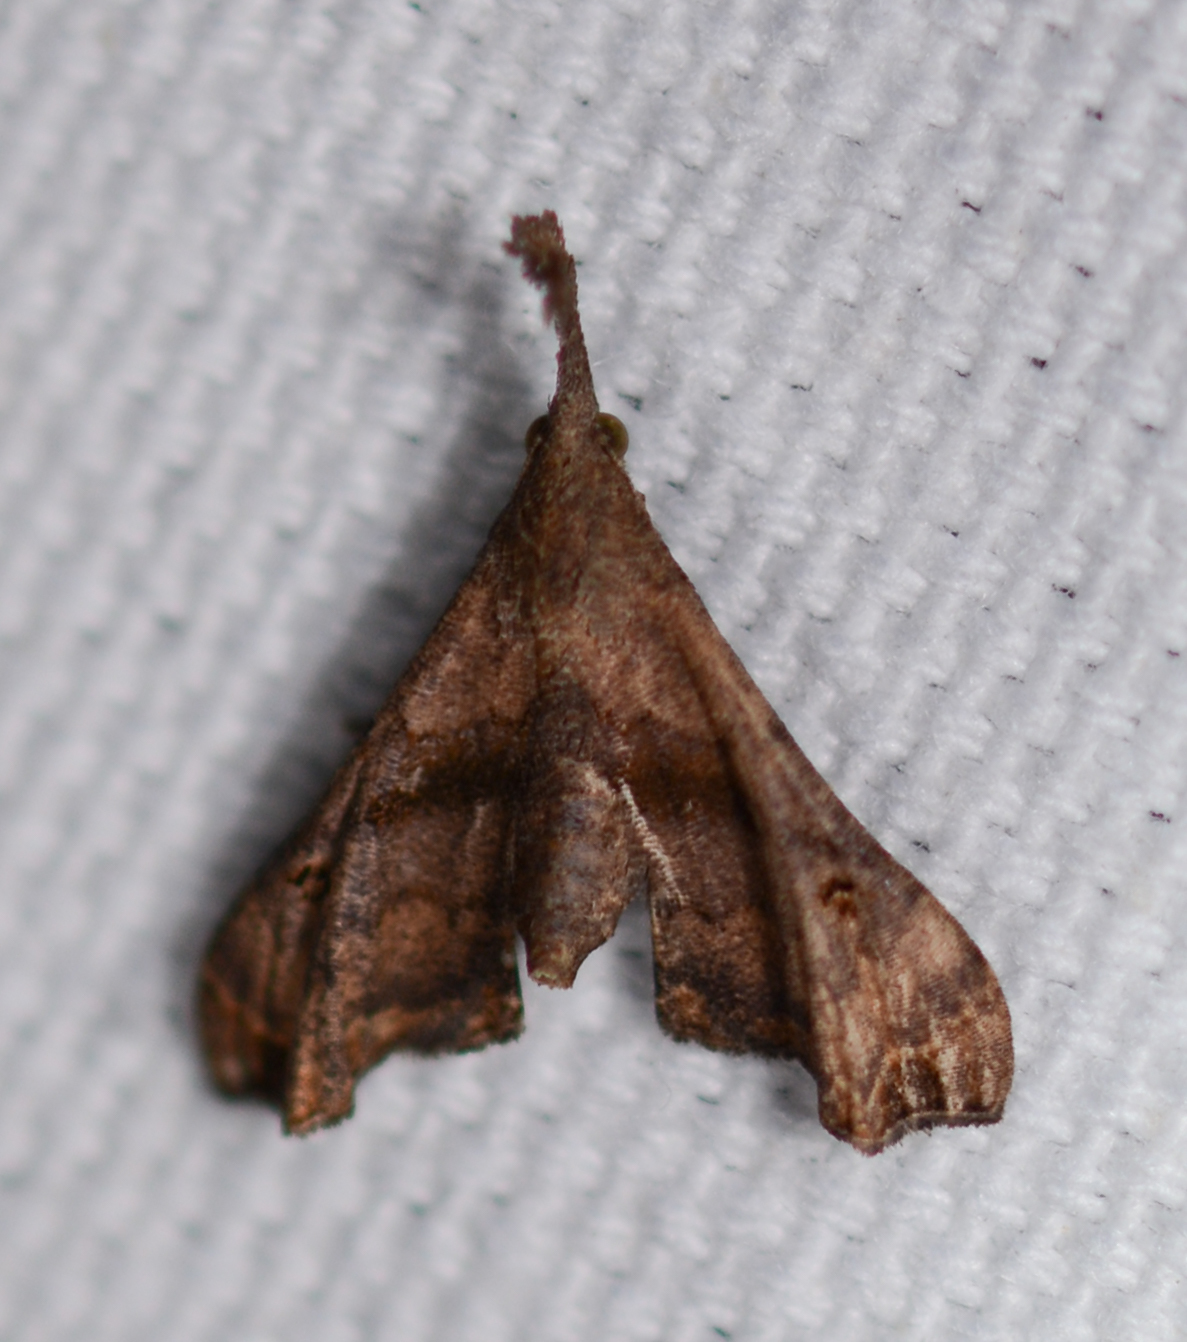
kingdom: Animalia
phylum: Arthropoda
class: Insecta
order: Lepidoptera
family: Erebidae
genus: Palthis
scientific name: Palthis asopialis
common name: Faint-spotted palthis moth
